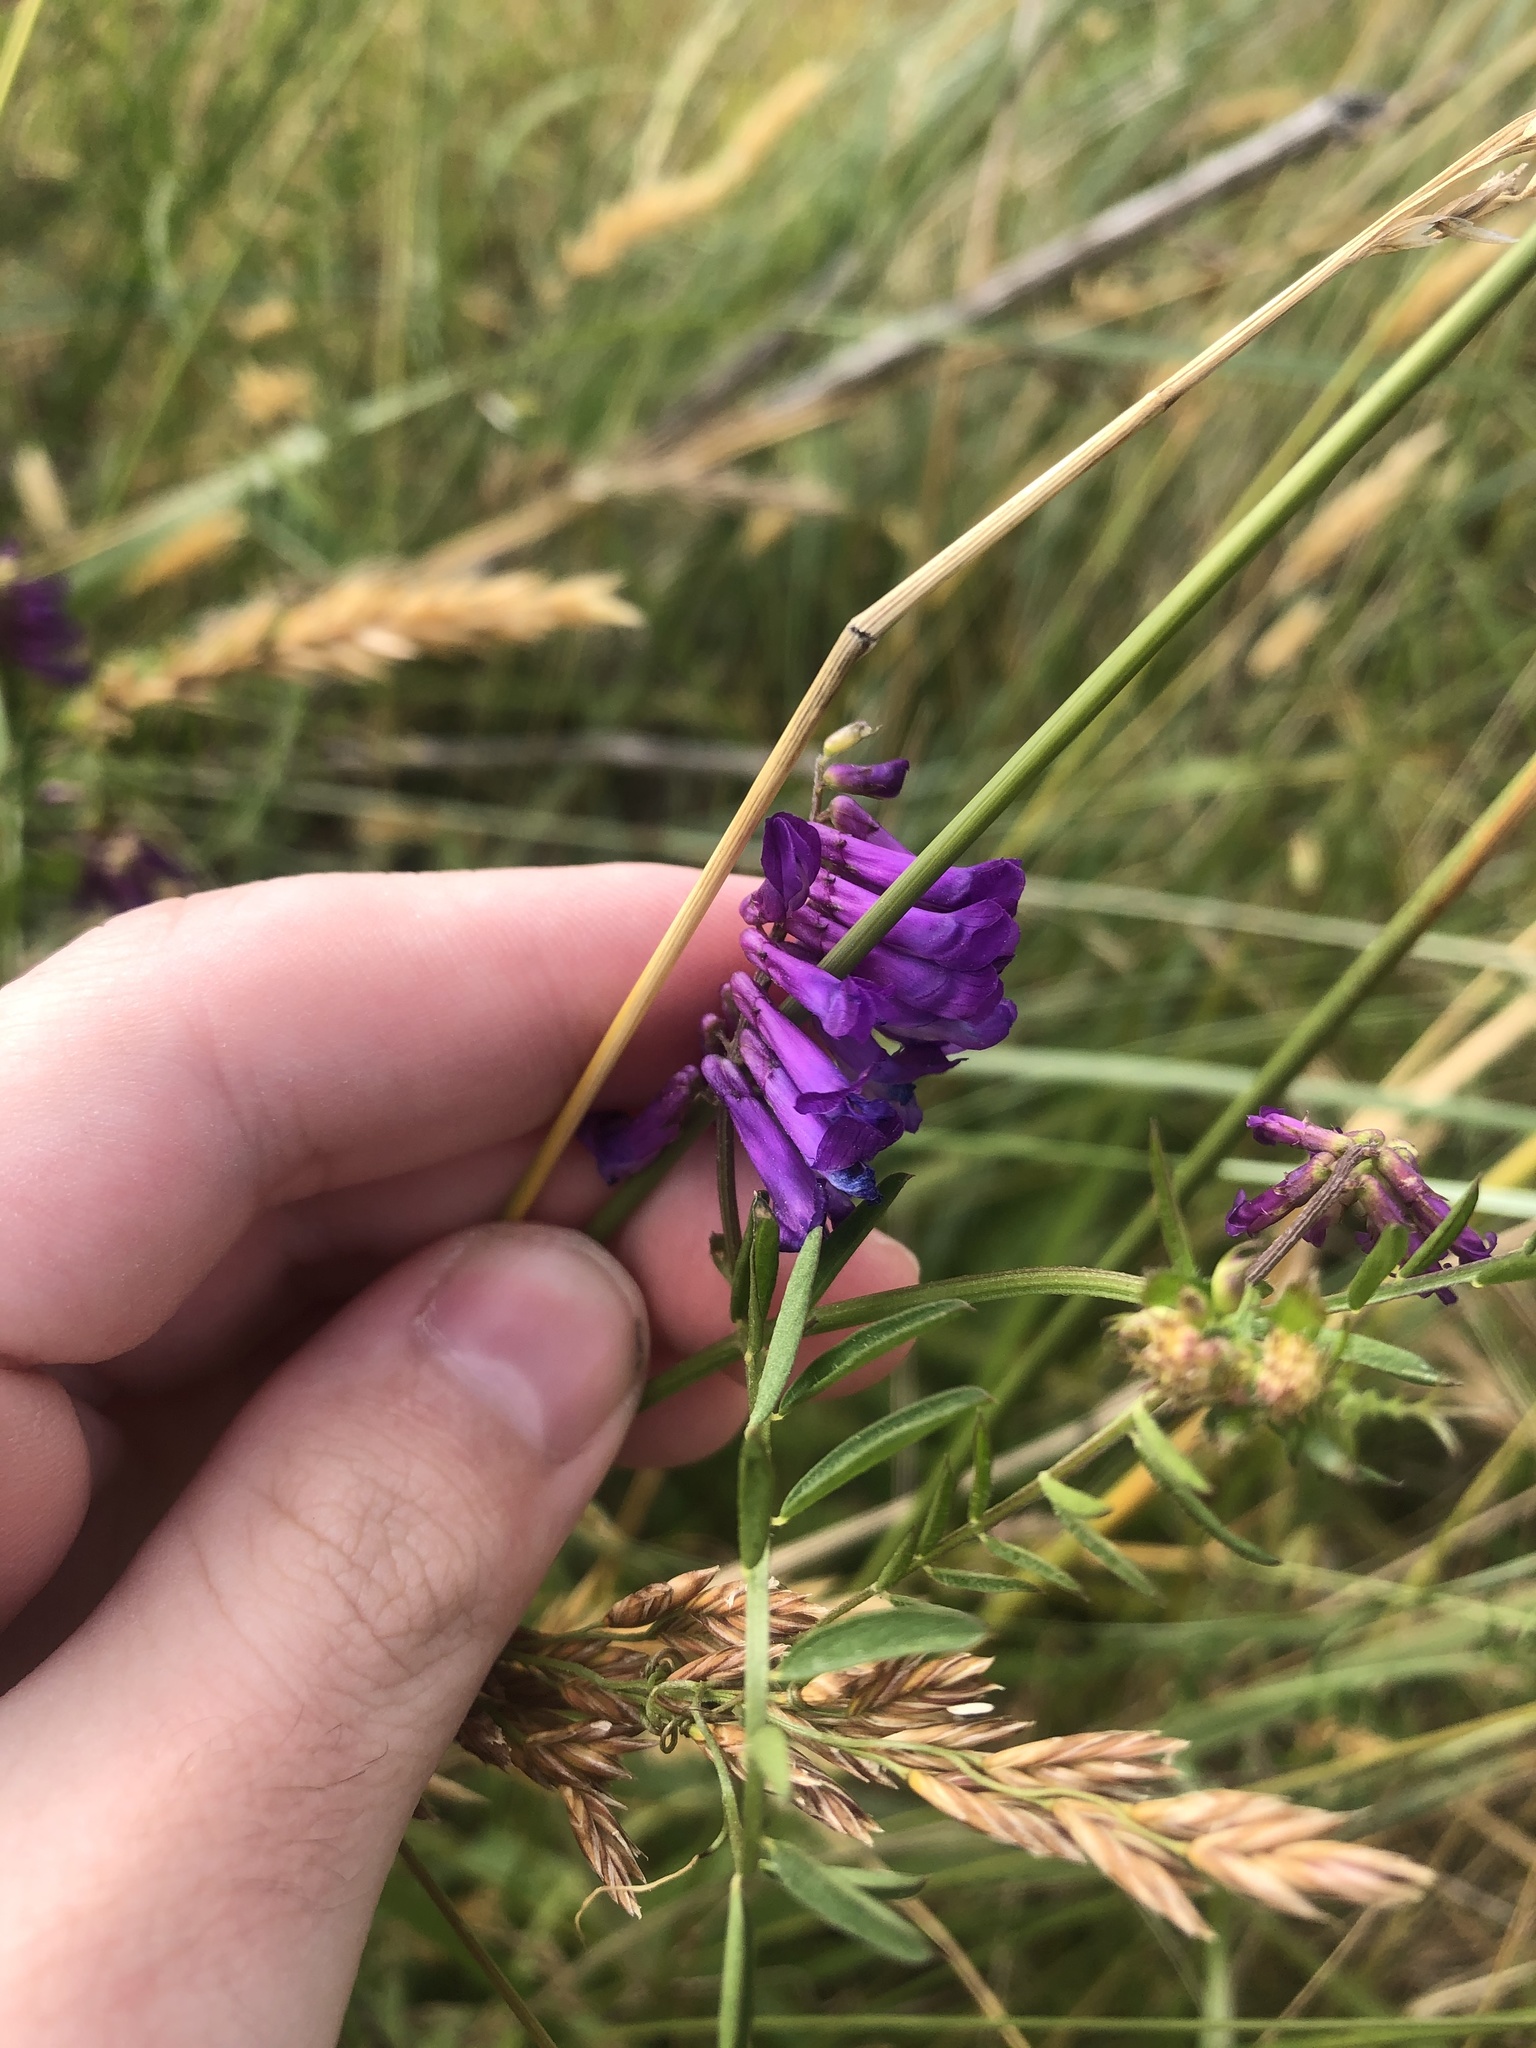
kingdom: Plantae
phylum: Tracheophyta
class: Magnoliopsida
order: Fabales
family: Fabaceae
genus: Vicia
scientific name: Vicia villosa
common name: Fodder vetch
